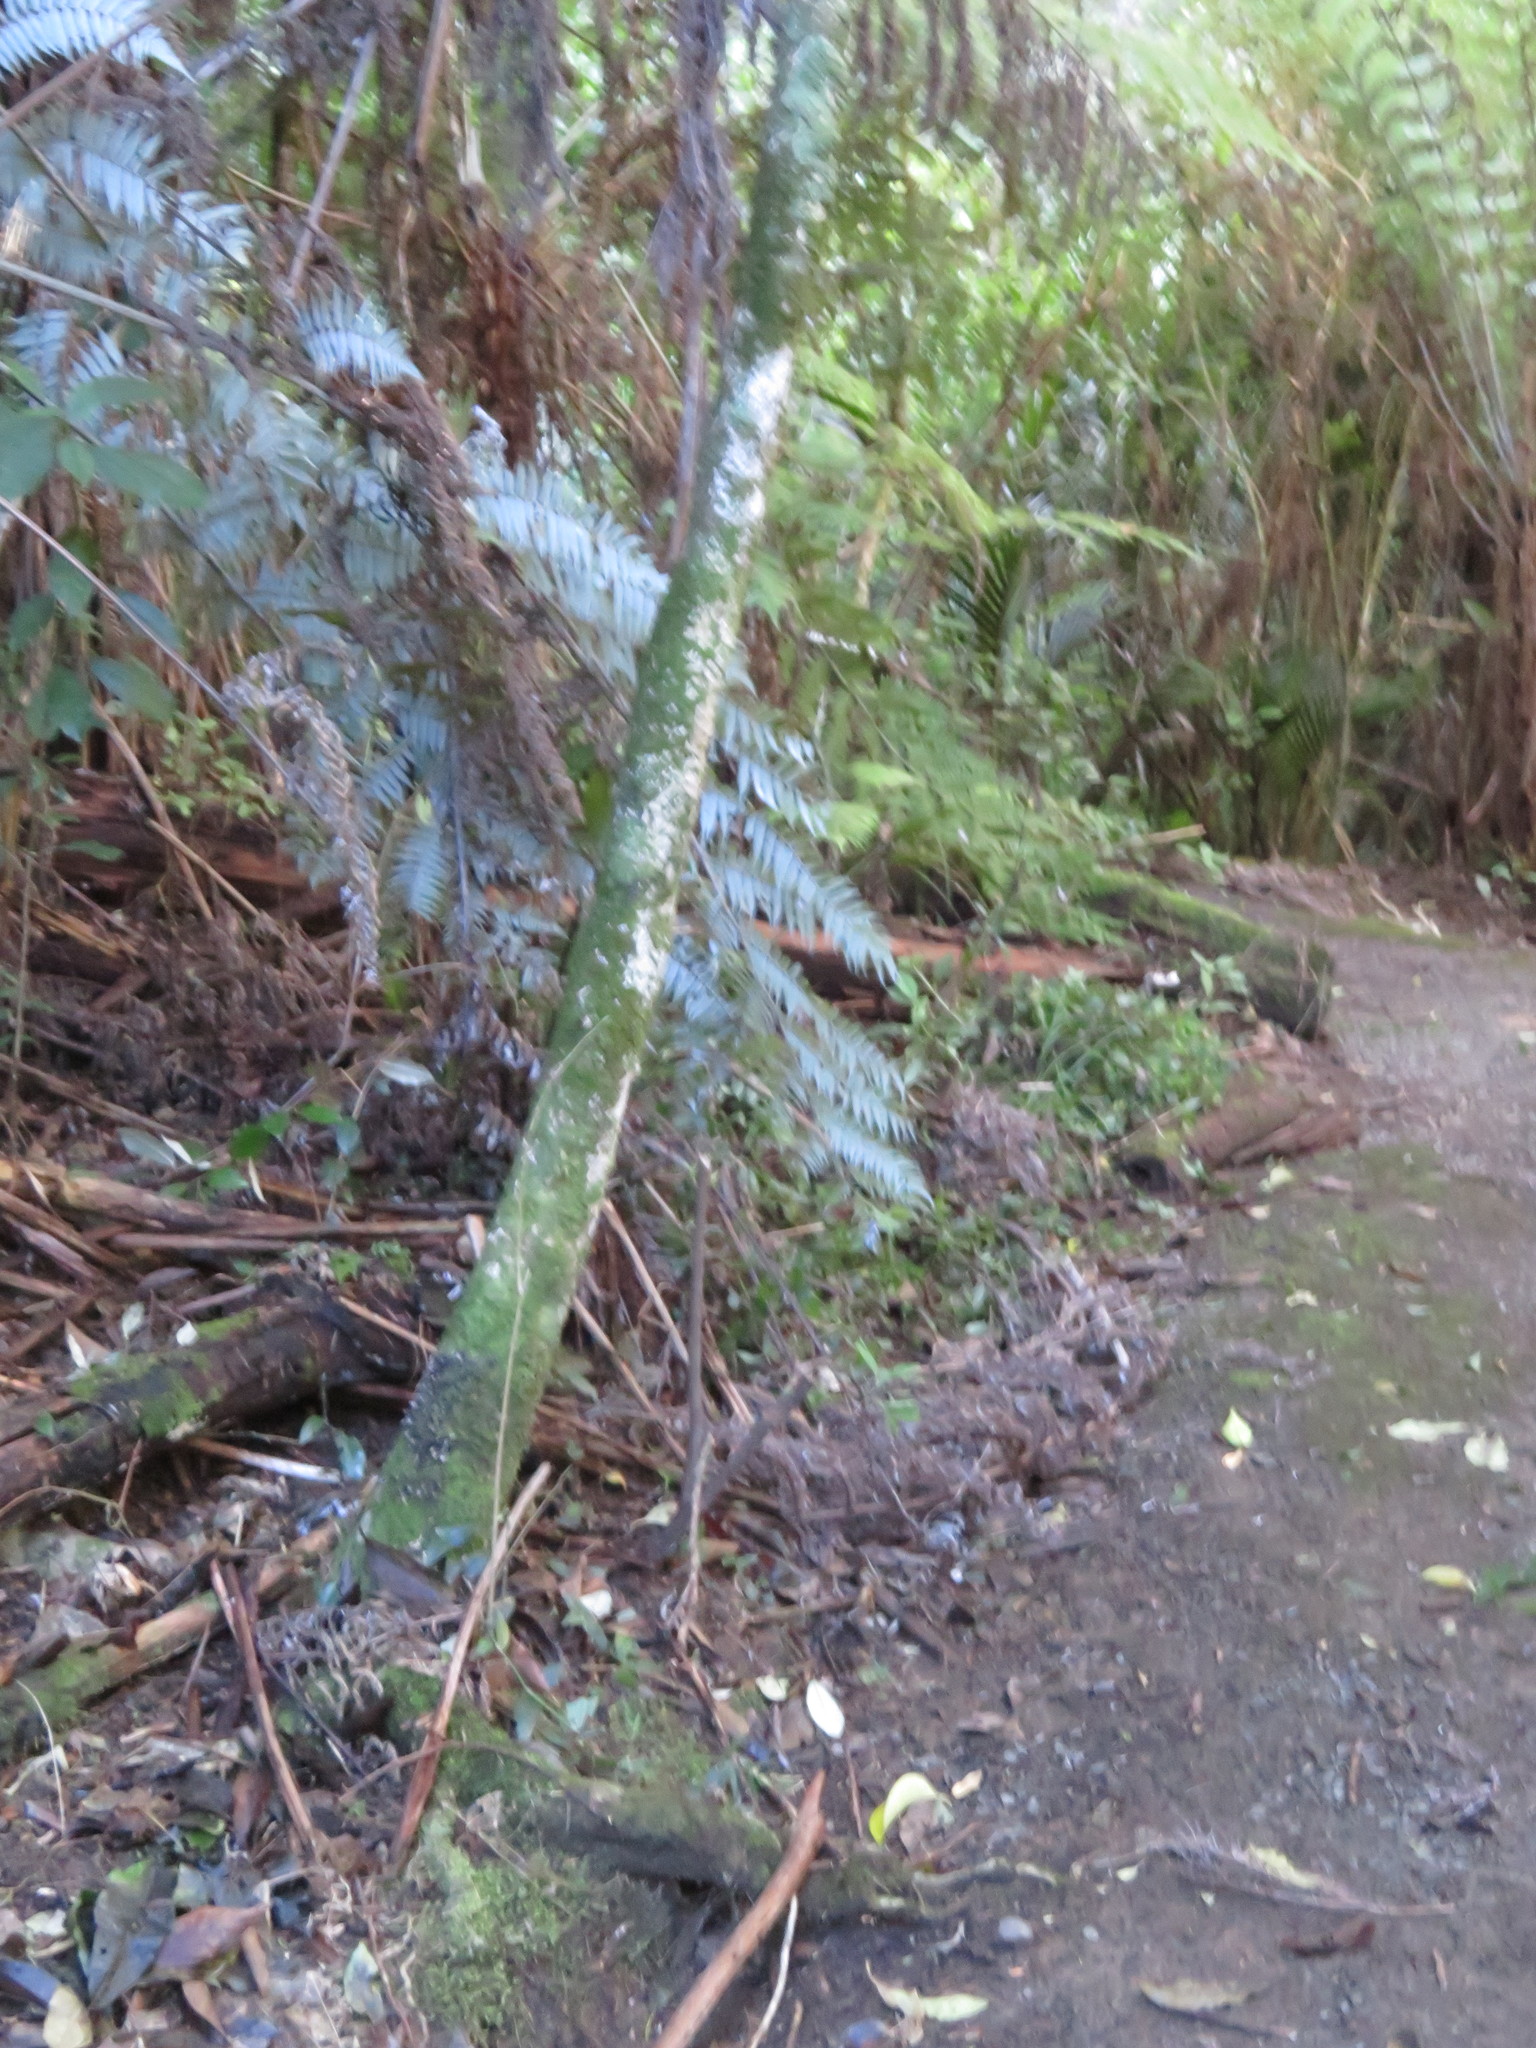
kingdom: Plantae
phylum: Tracheophyta
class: Polypodiopsida
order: Cyatheales
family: Cyatheaceae
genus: Alsophila
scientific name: Alsophila dealbata
